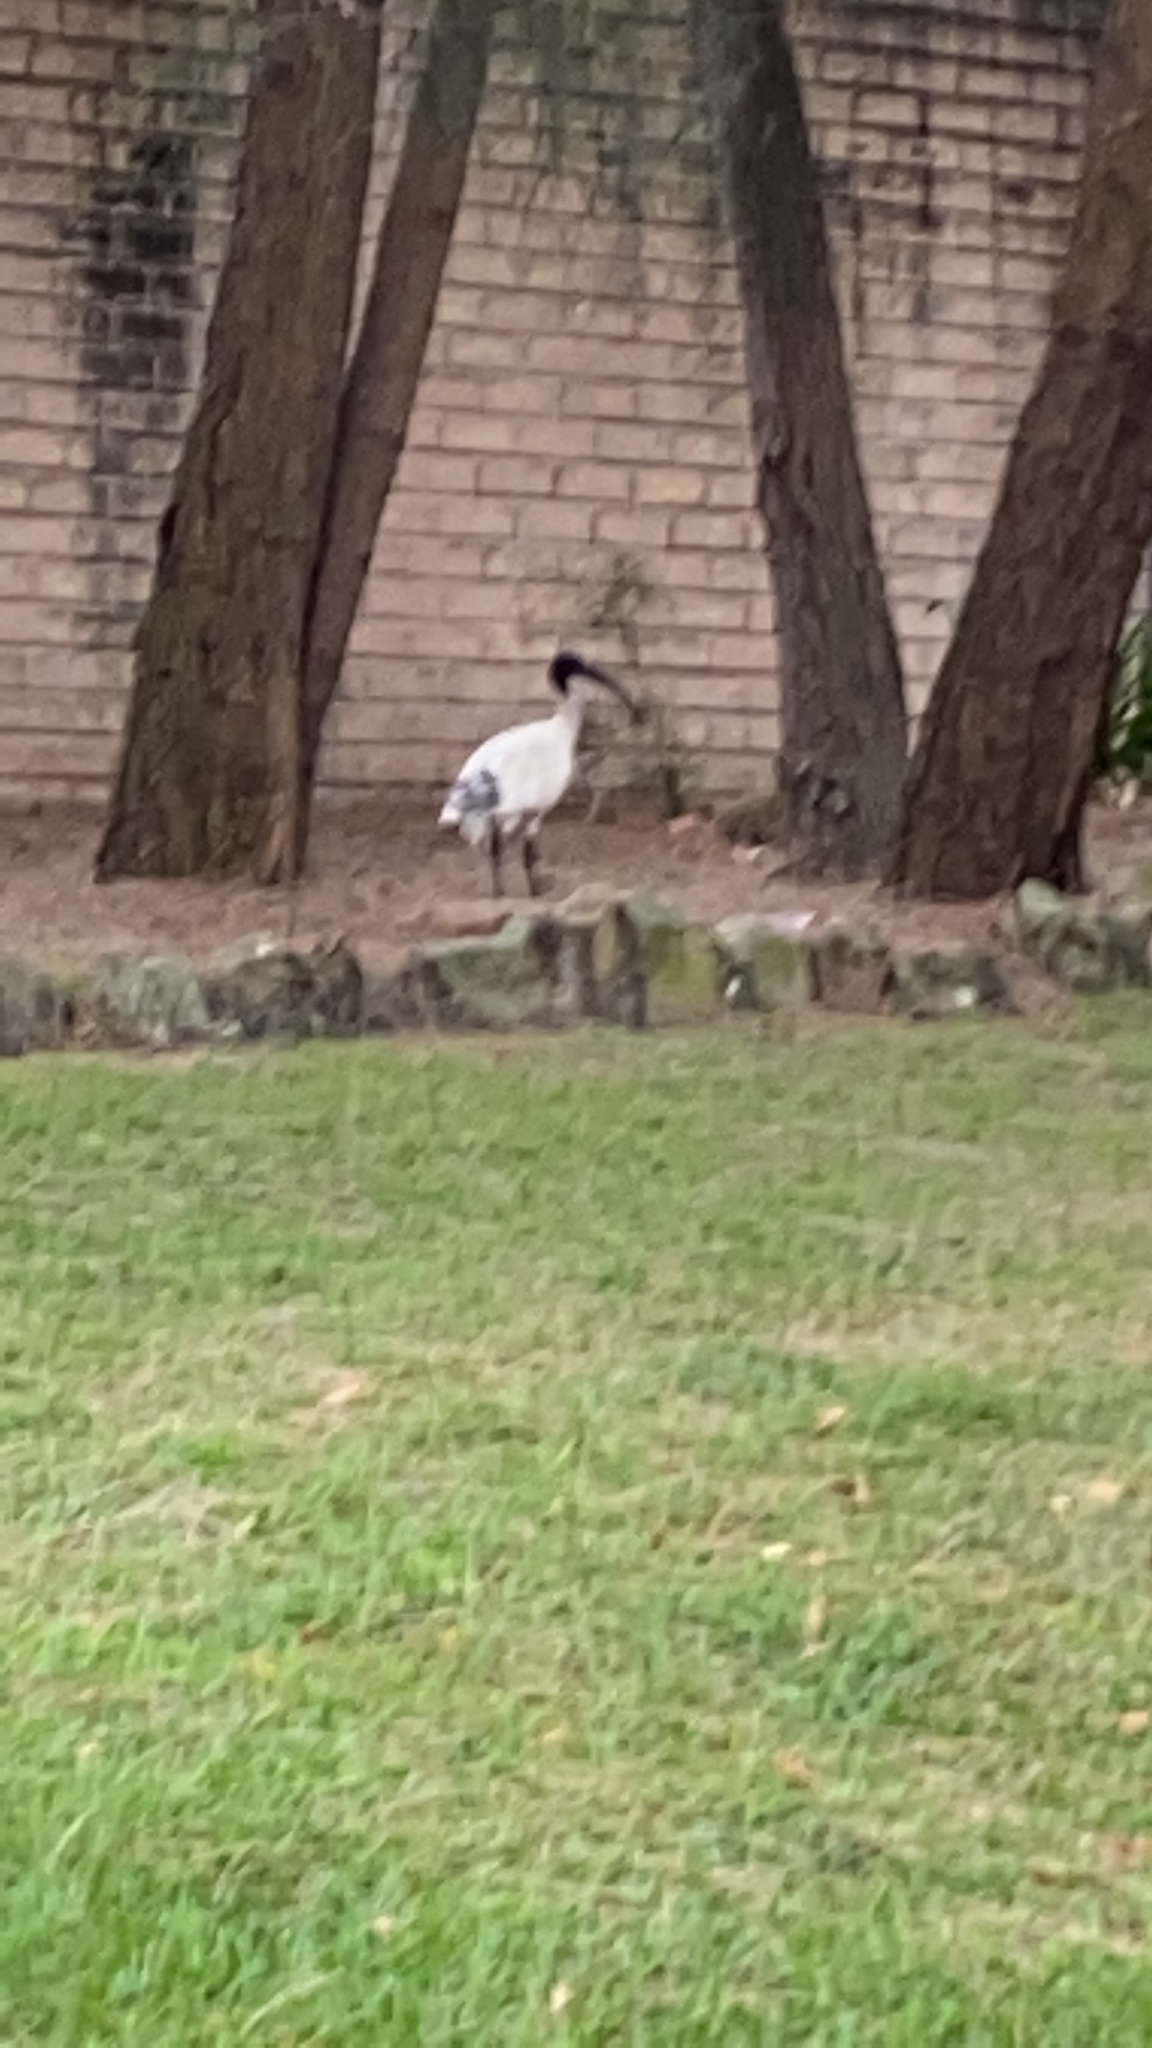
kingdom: Animalia
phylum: Chordata
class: Aves
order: Pelecaniformes
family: Threskiornithidae
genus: Threskiornis
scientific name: Threskiornis molucca
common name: Australian white ibis
